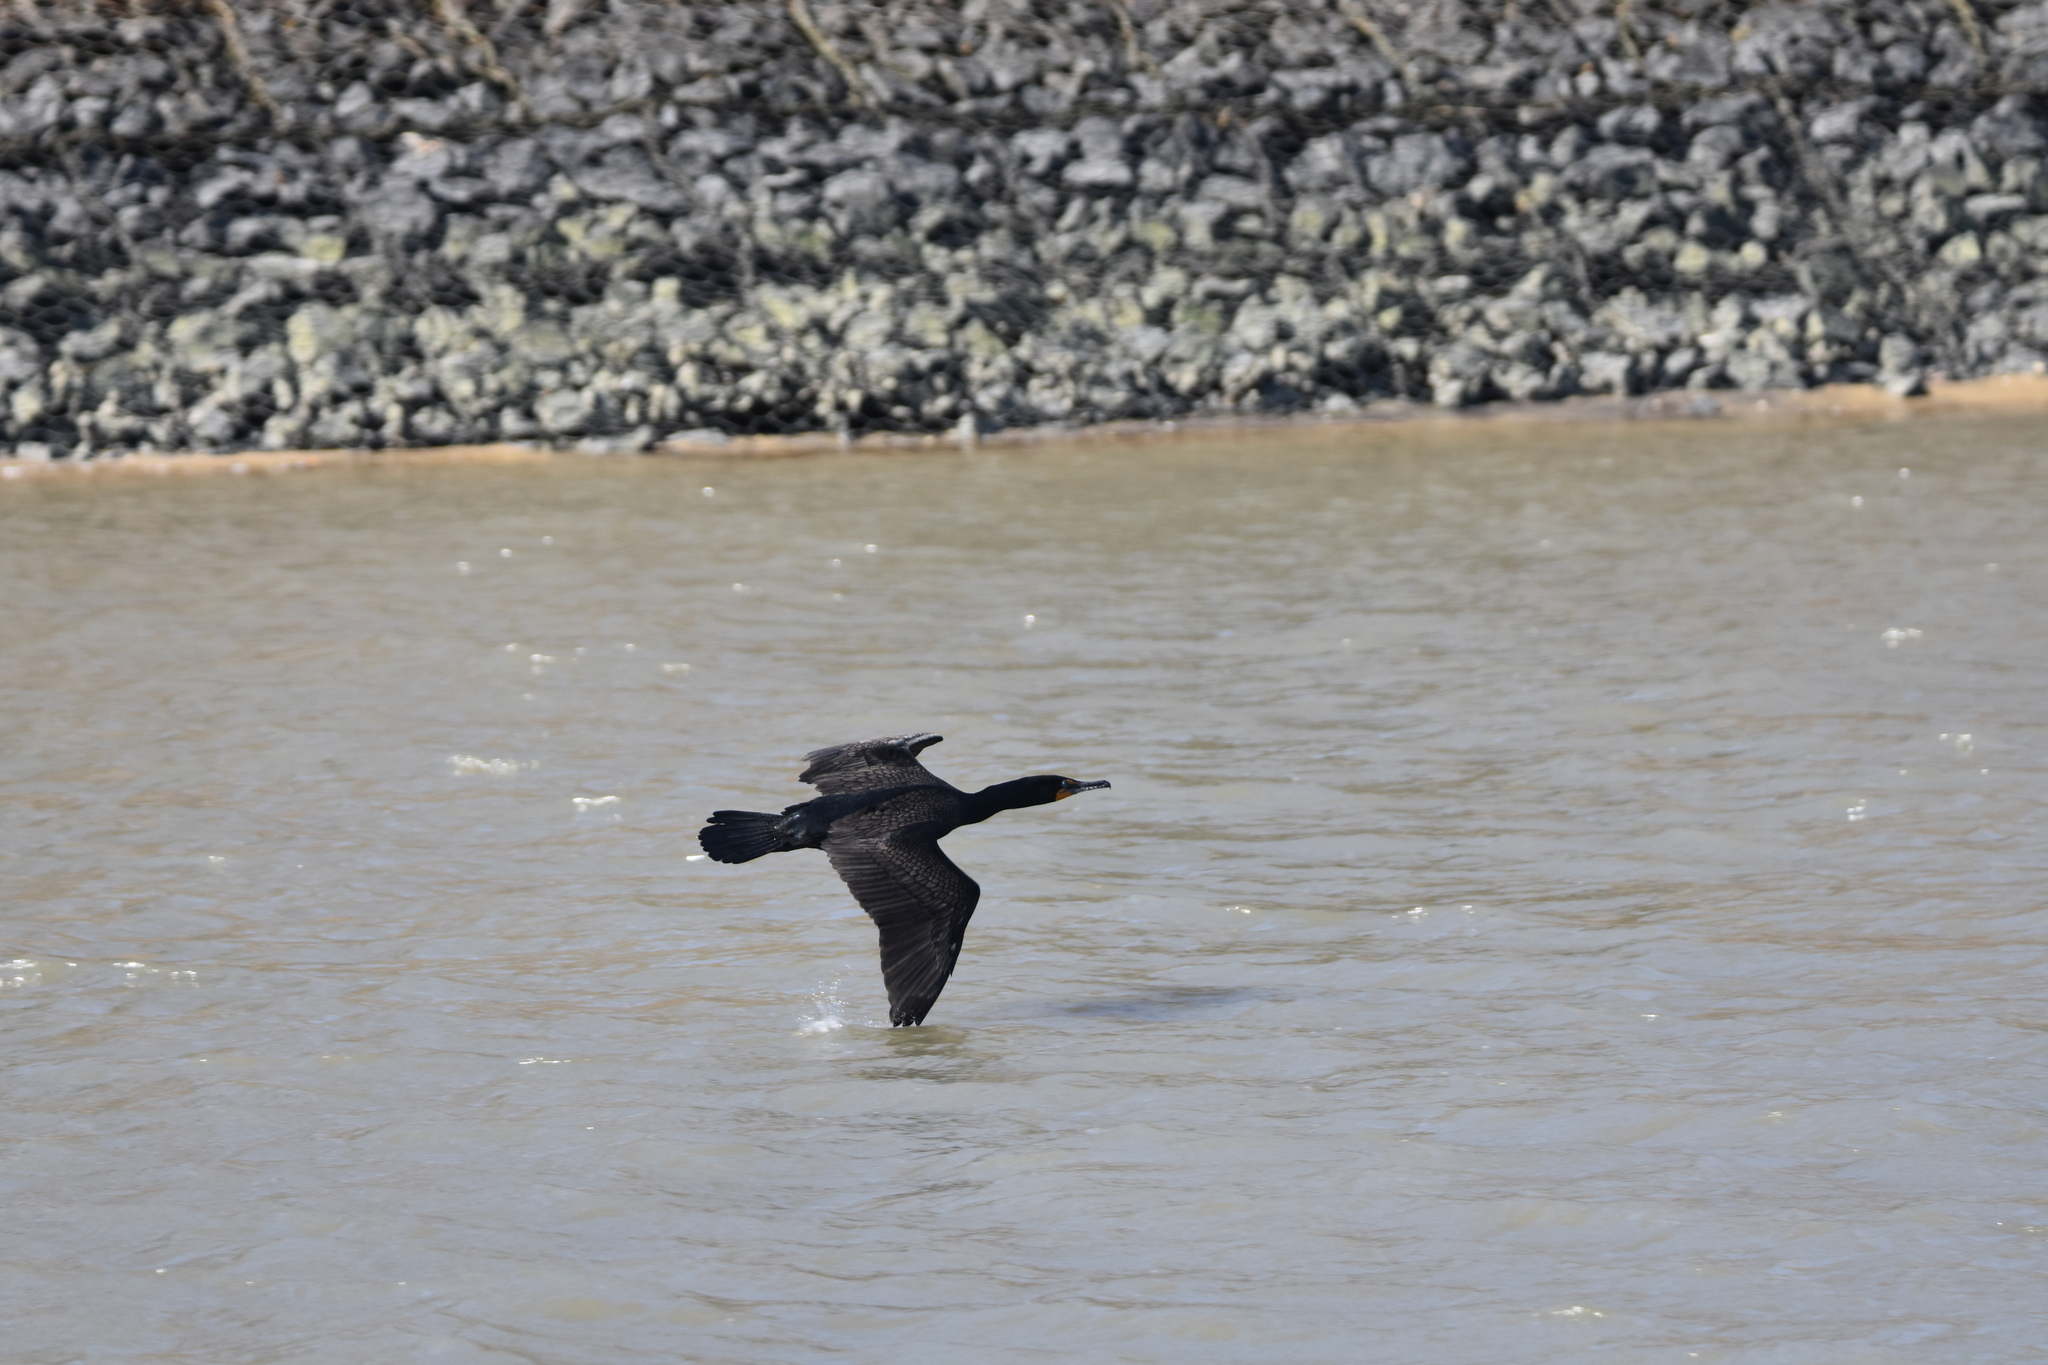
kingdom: Animalia
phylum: Chordata
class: Aves
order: Suliformes
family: Phalacrocoracidae
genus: Phalacrocorax
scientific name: Phalacrocorax auritus
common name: Double-crested cormorant
